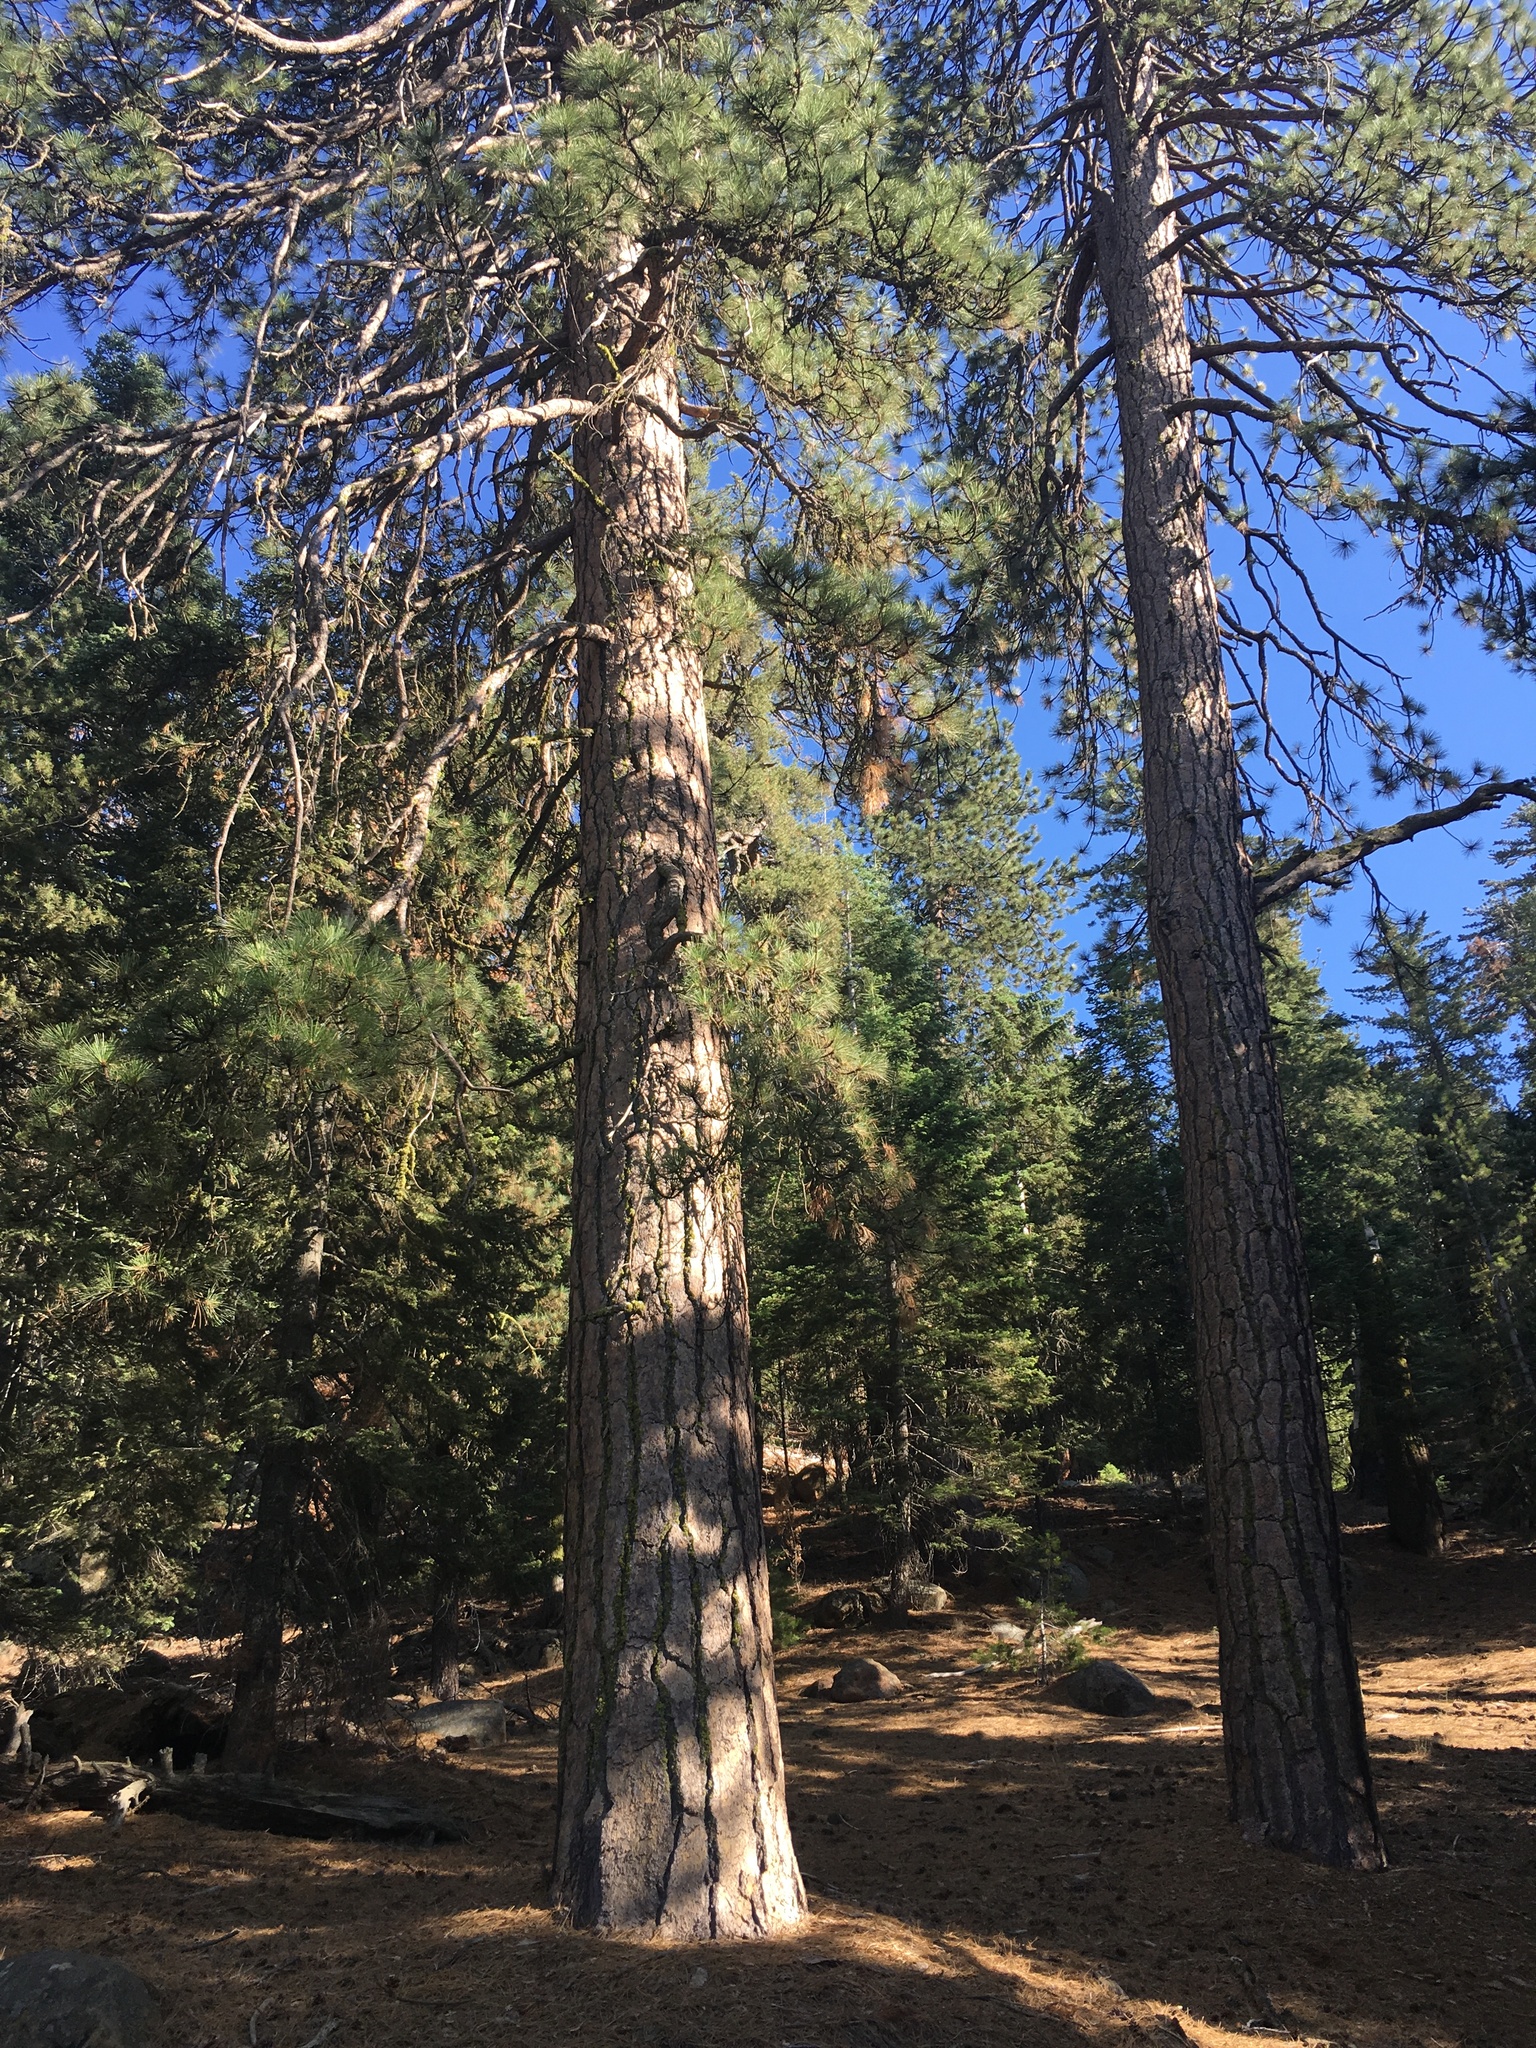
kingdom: Plantae
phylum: Tracheophyta
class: Pinopsida
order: Pinales
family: Pinaceae
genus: Pinus
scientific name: Pinus jeffreyi
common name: Jeffrey pine
